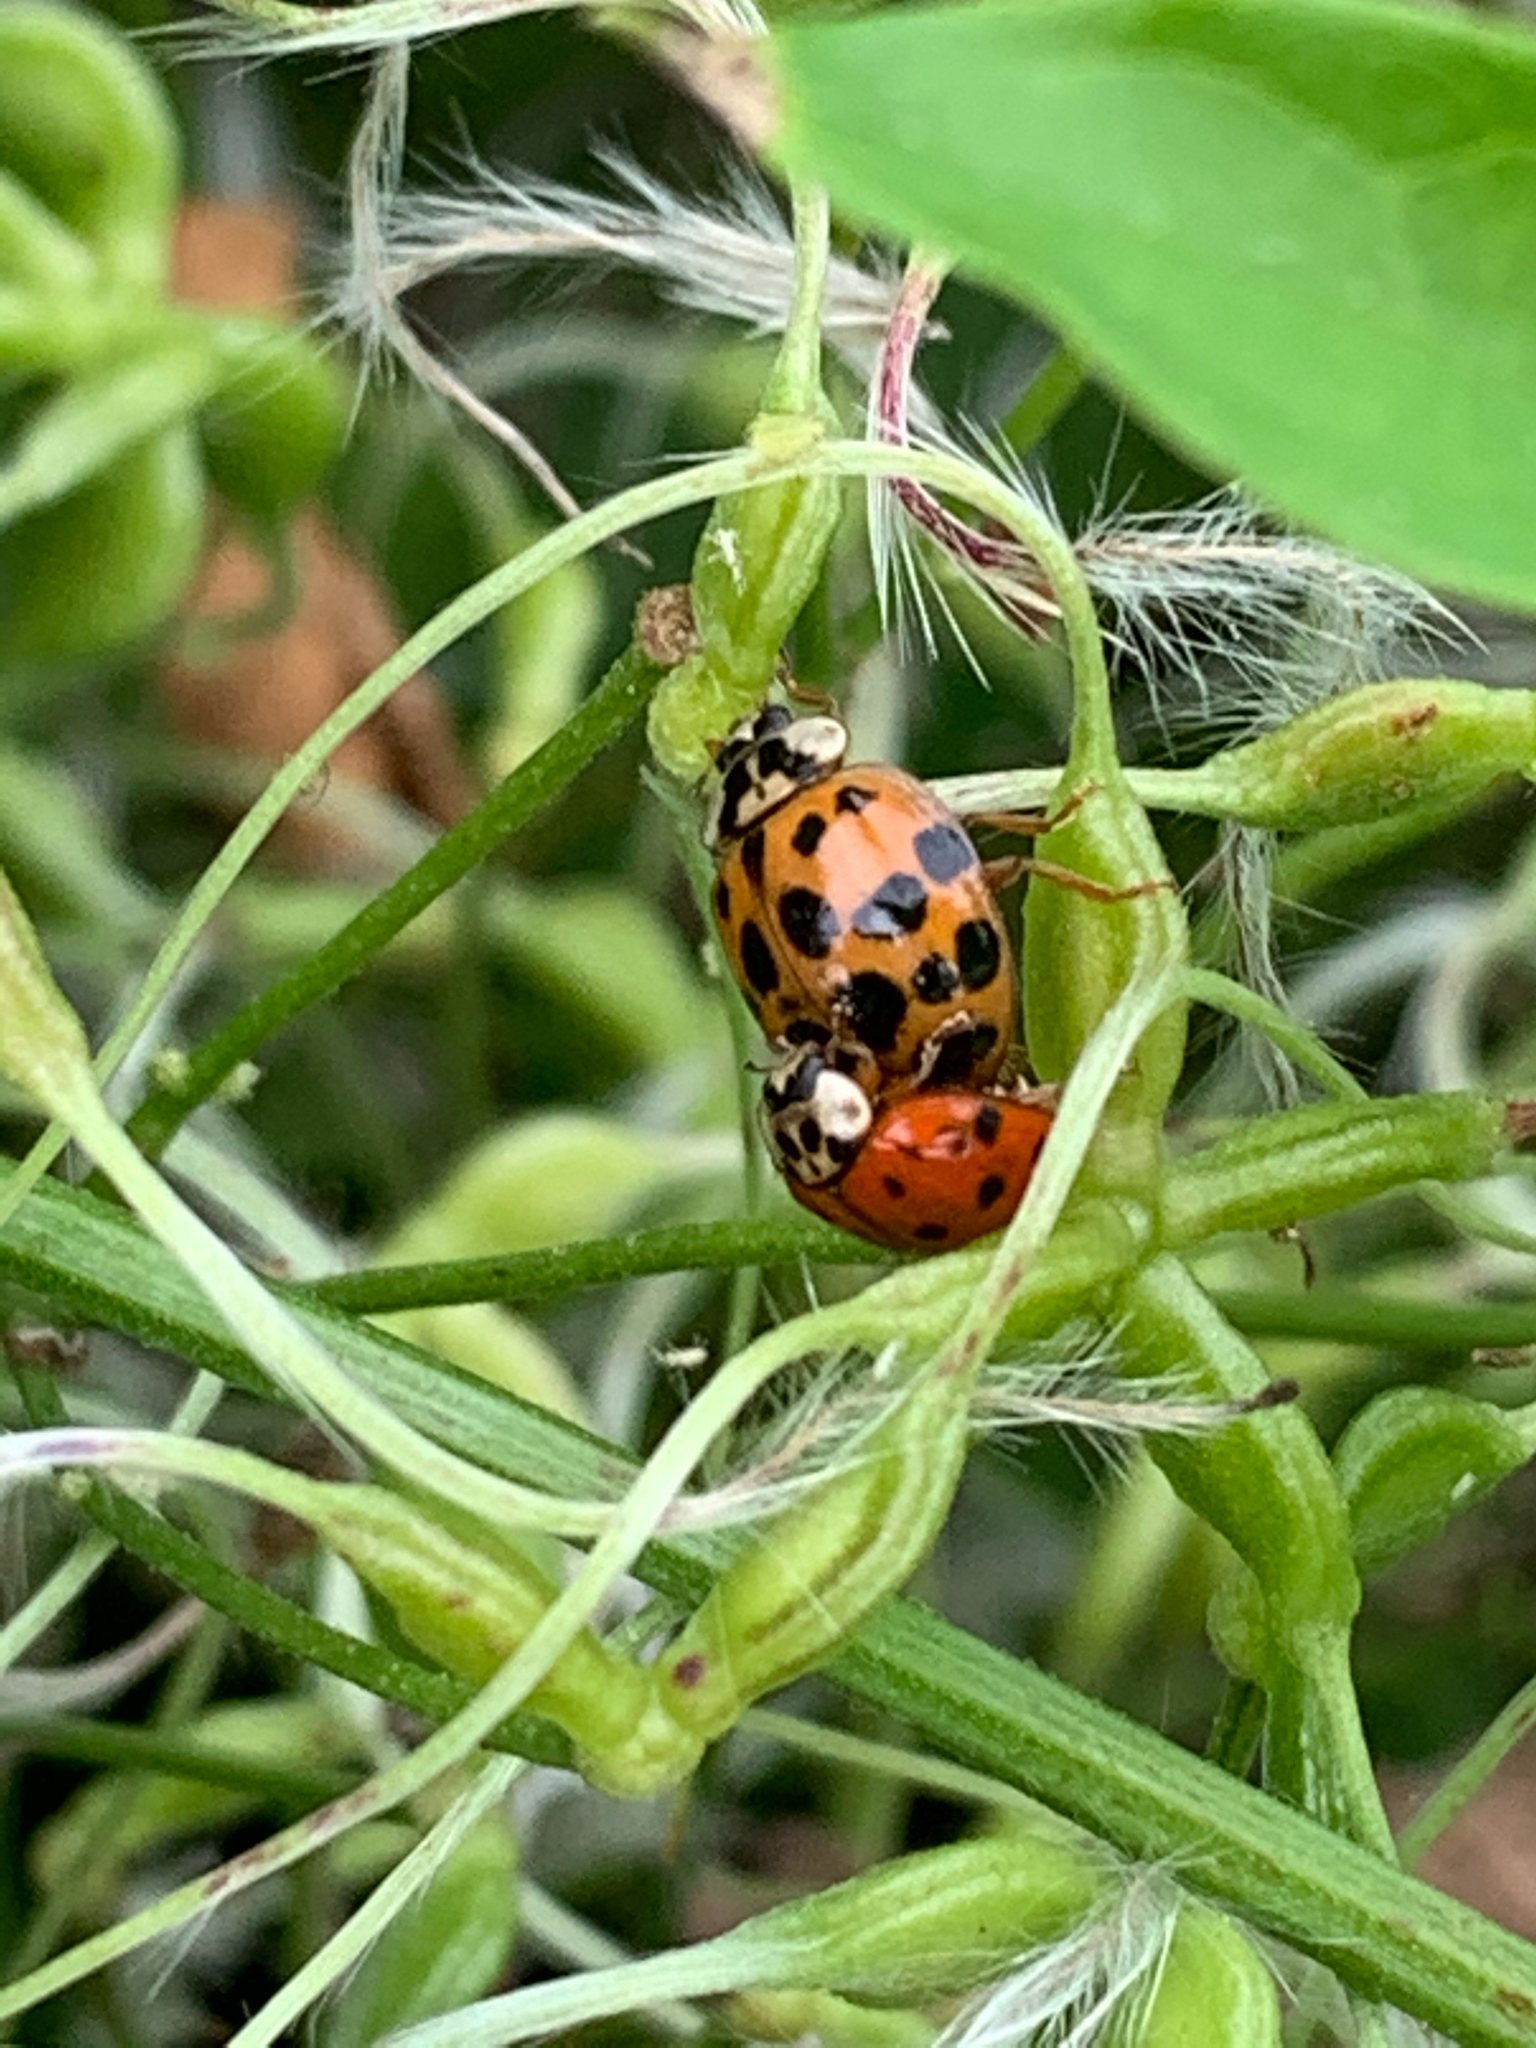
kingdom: Animalia
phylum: Arthropoda
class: Insecta
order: Coleoptera
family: Coccinellidae
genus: Harmonia
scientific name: Harmonia axyridis
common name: Harlequin ladybird
